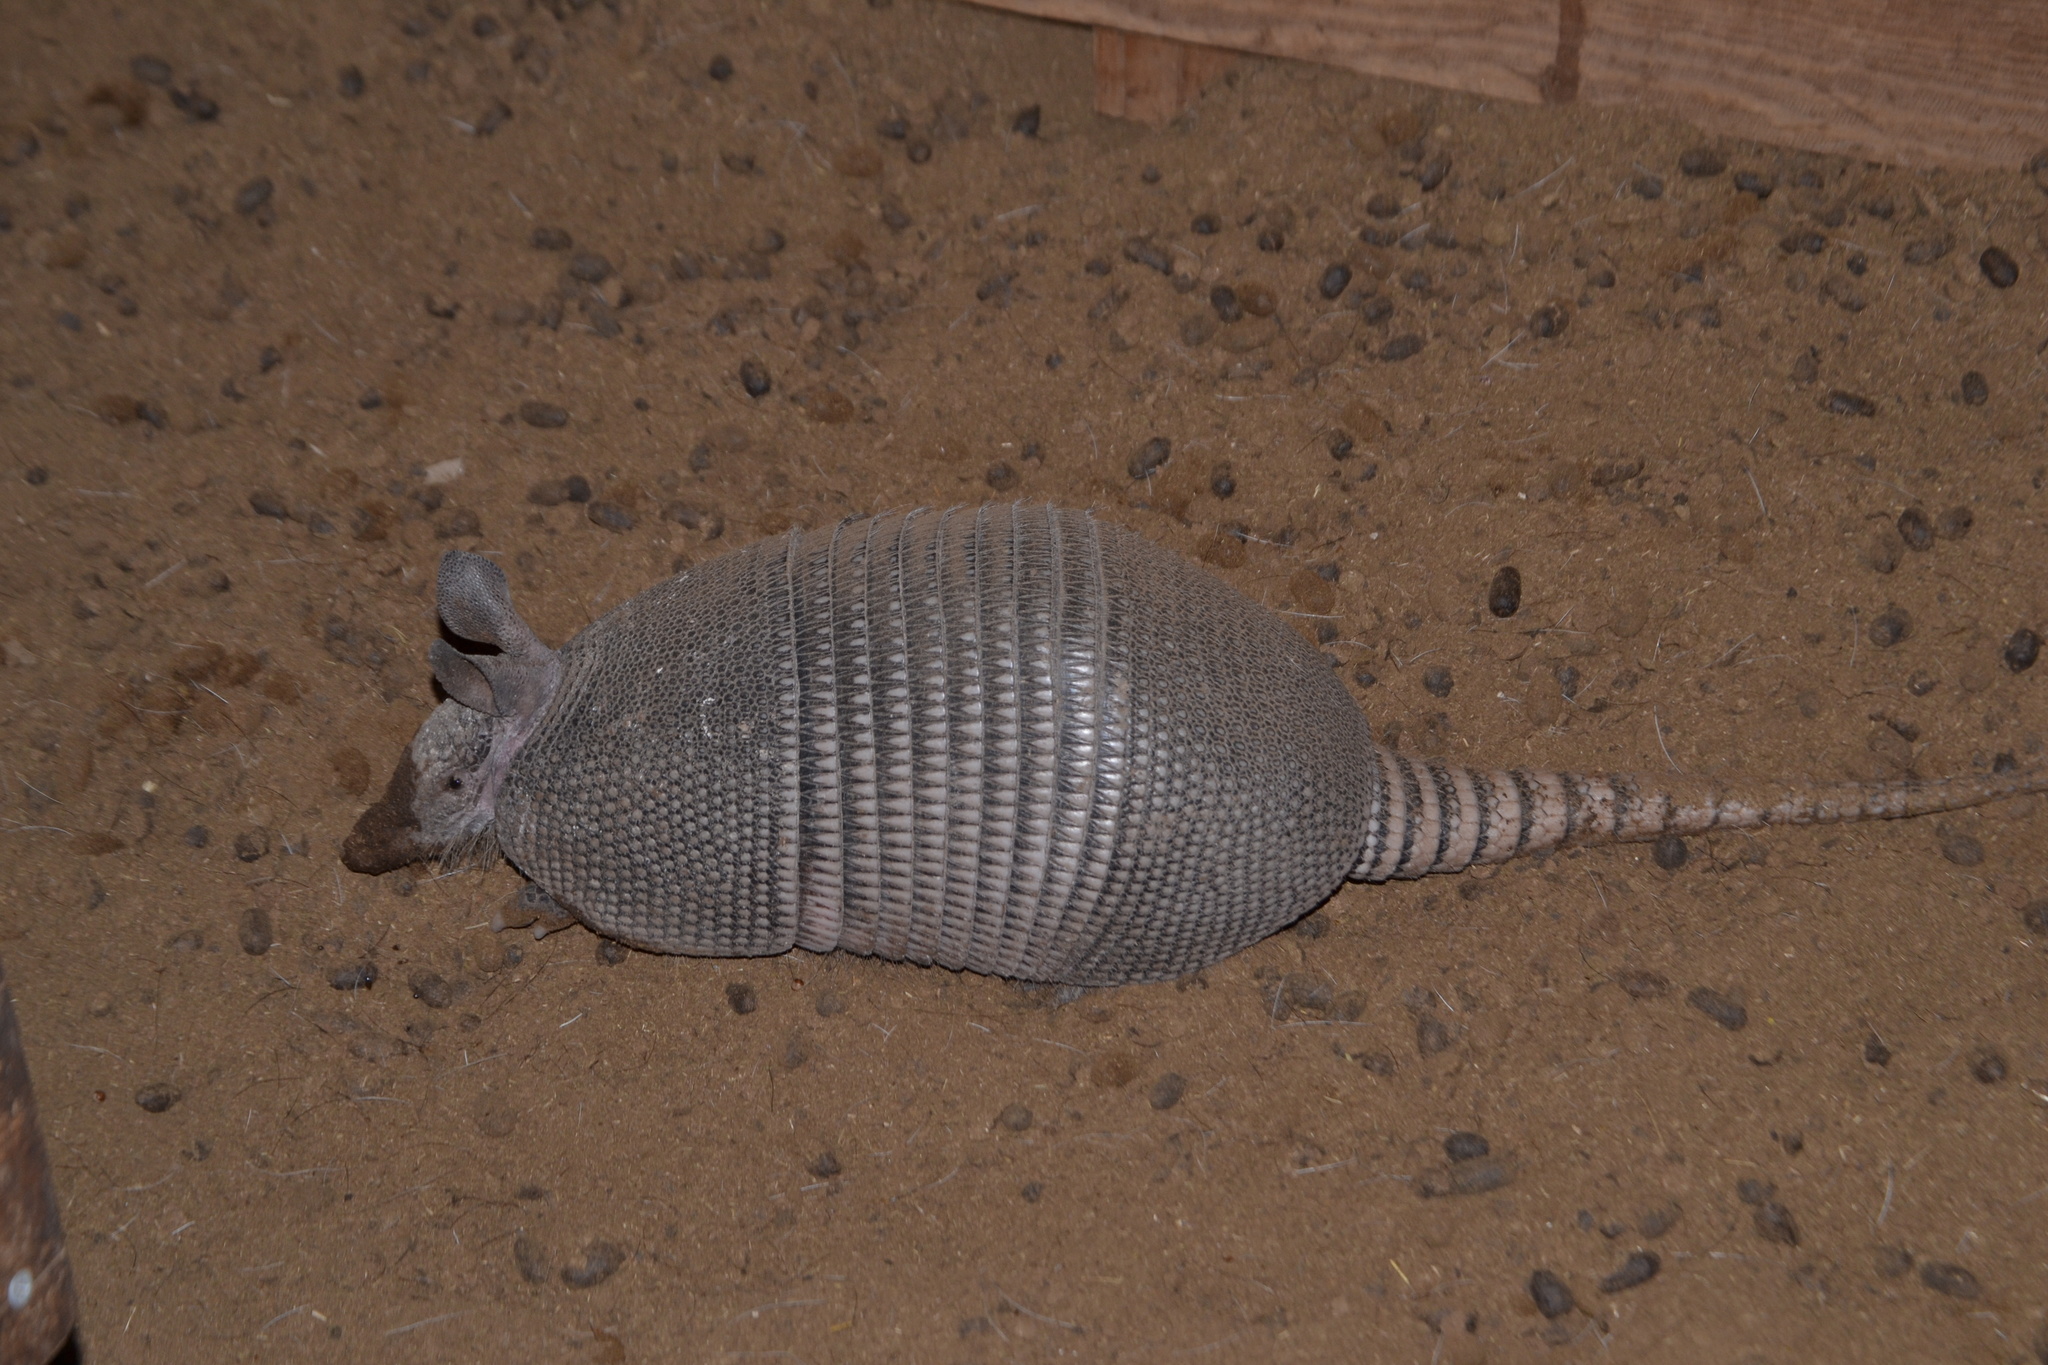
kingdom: Animalia
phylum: Chordata
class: Mammalia
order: Cingulata
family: Dasypodidae
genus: Dasypus
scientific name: Dasypus novemcinctus
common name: Nine-banded armadillo
